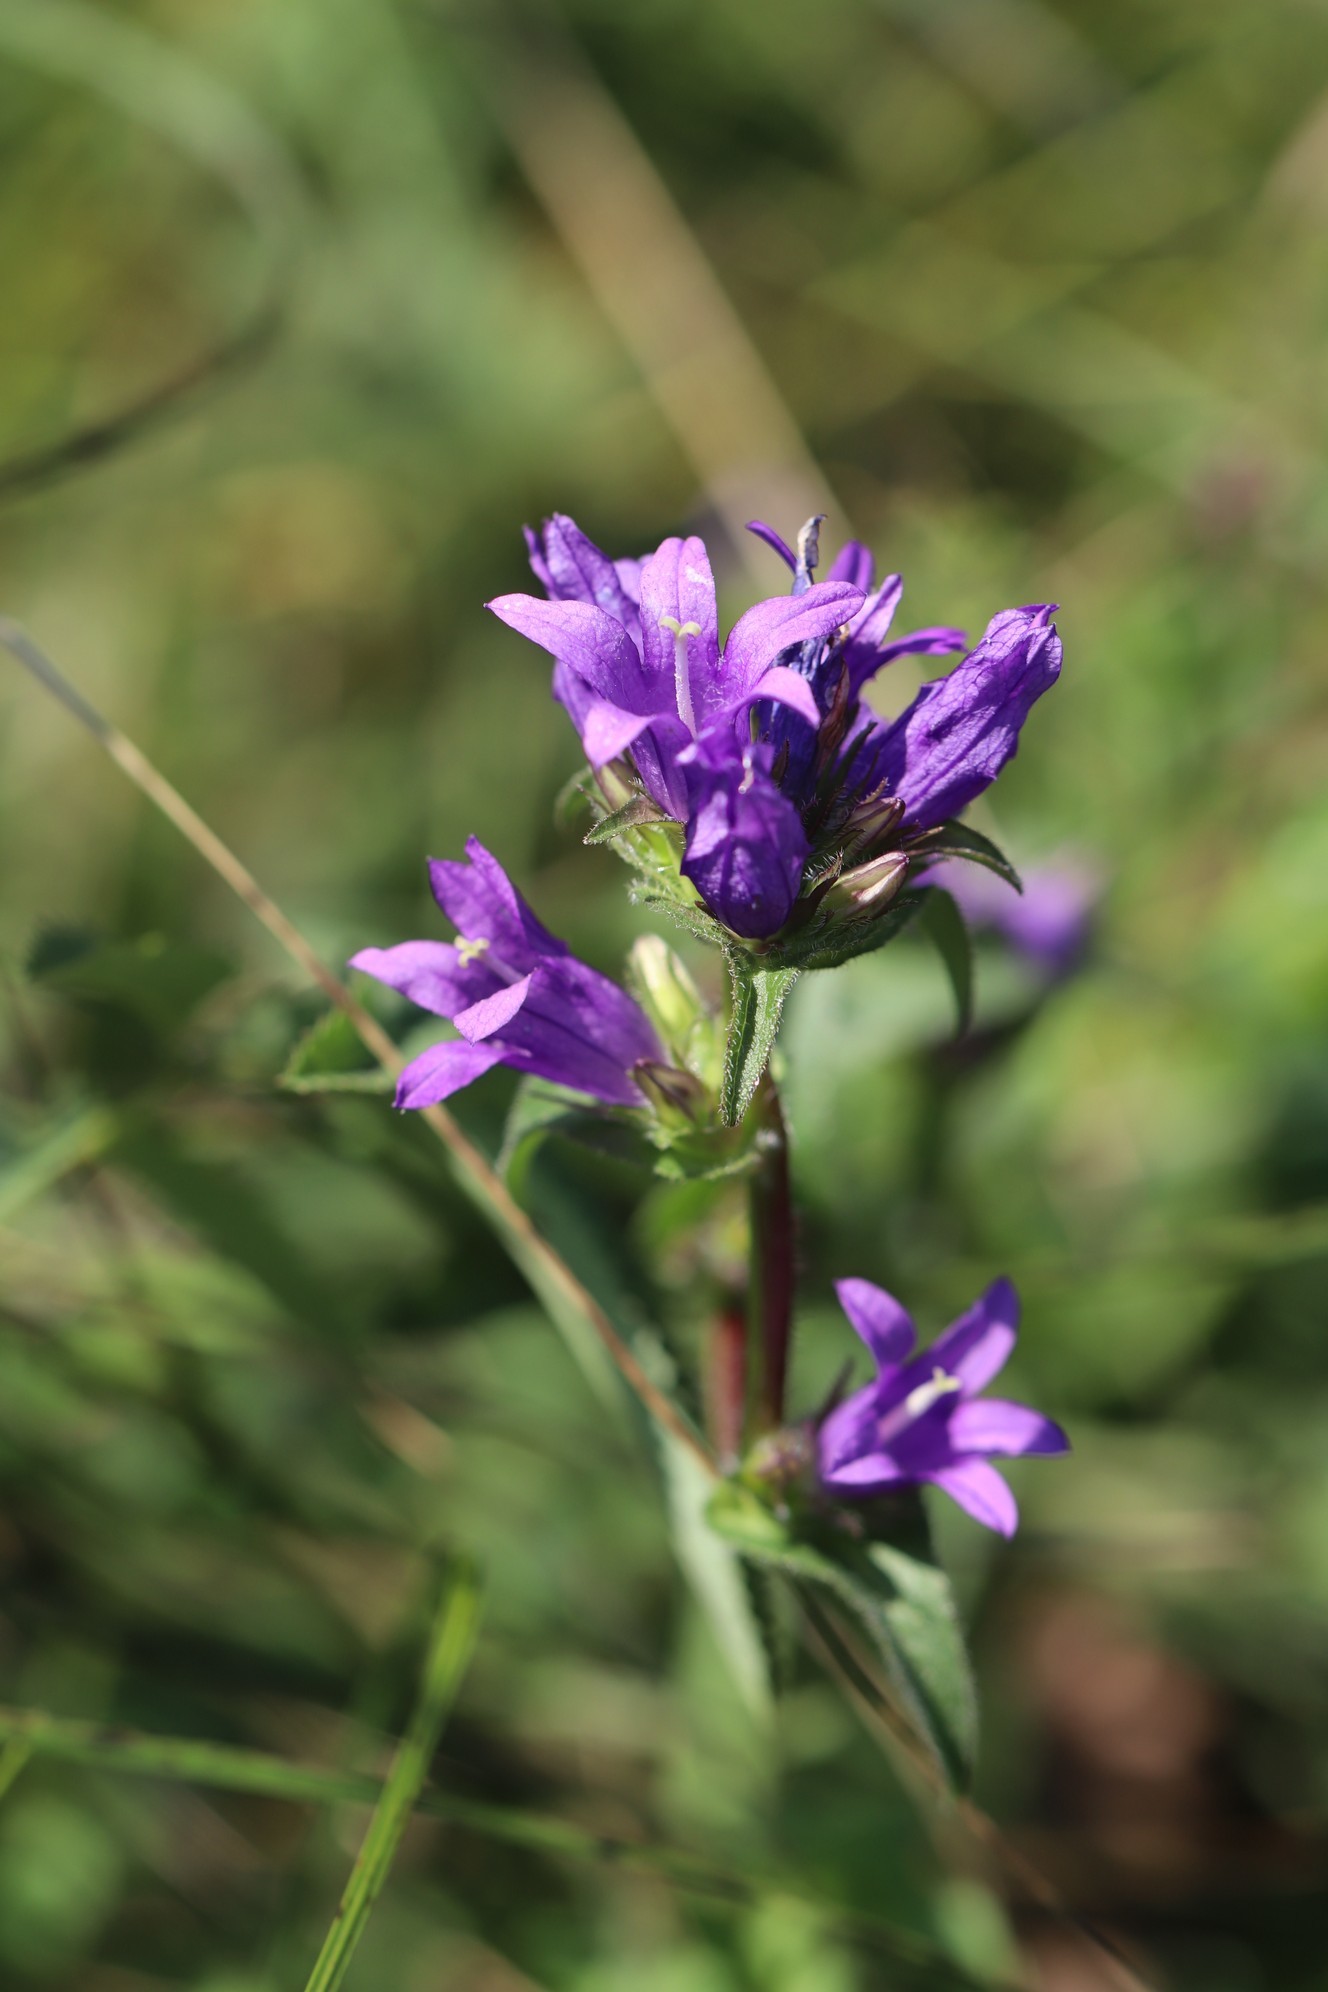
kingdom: Plantae
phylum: Tracheophyta
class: Magnoliopsida
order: Asterales
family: Campanulaceae
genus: Campanula
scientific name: Campanula glomerata
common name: Clustered bellflower
